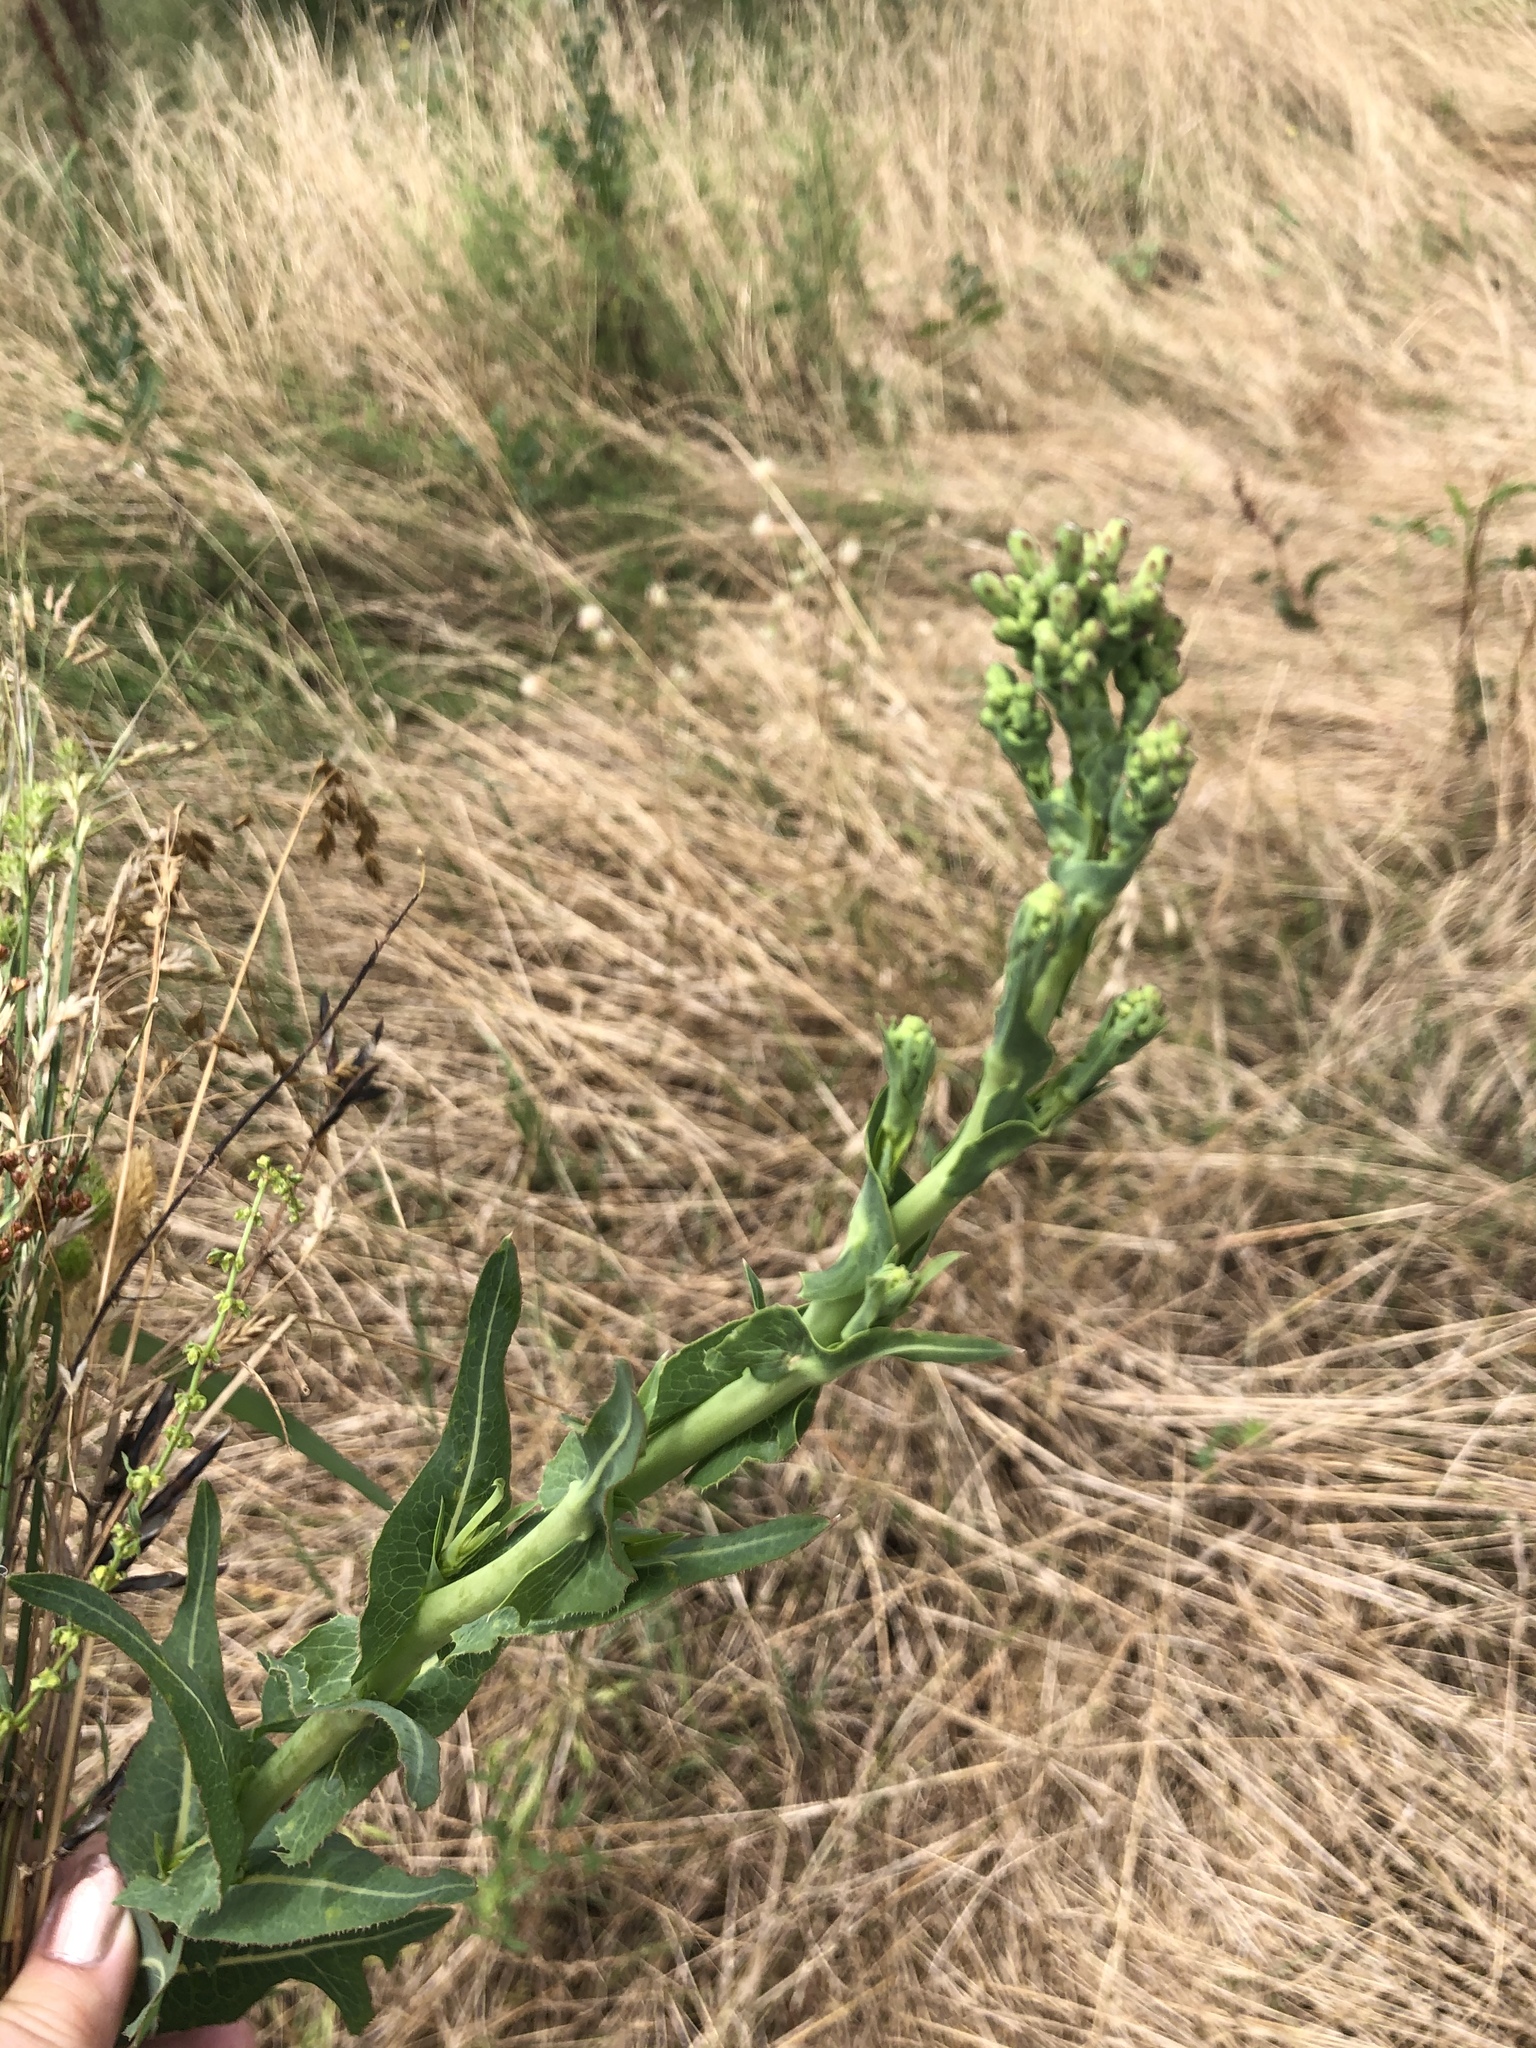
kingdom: Plantae
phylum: Tracheophyta
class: Magnoliopsida
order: Asterales
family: Asteraceae
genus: Lactuca
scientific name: Lactuca serriola
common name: Prickly lettuce
